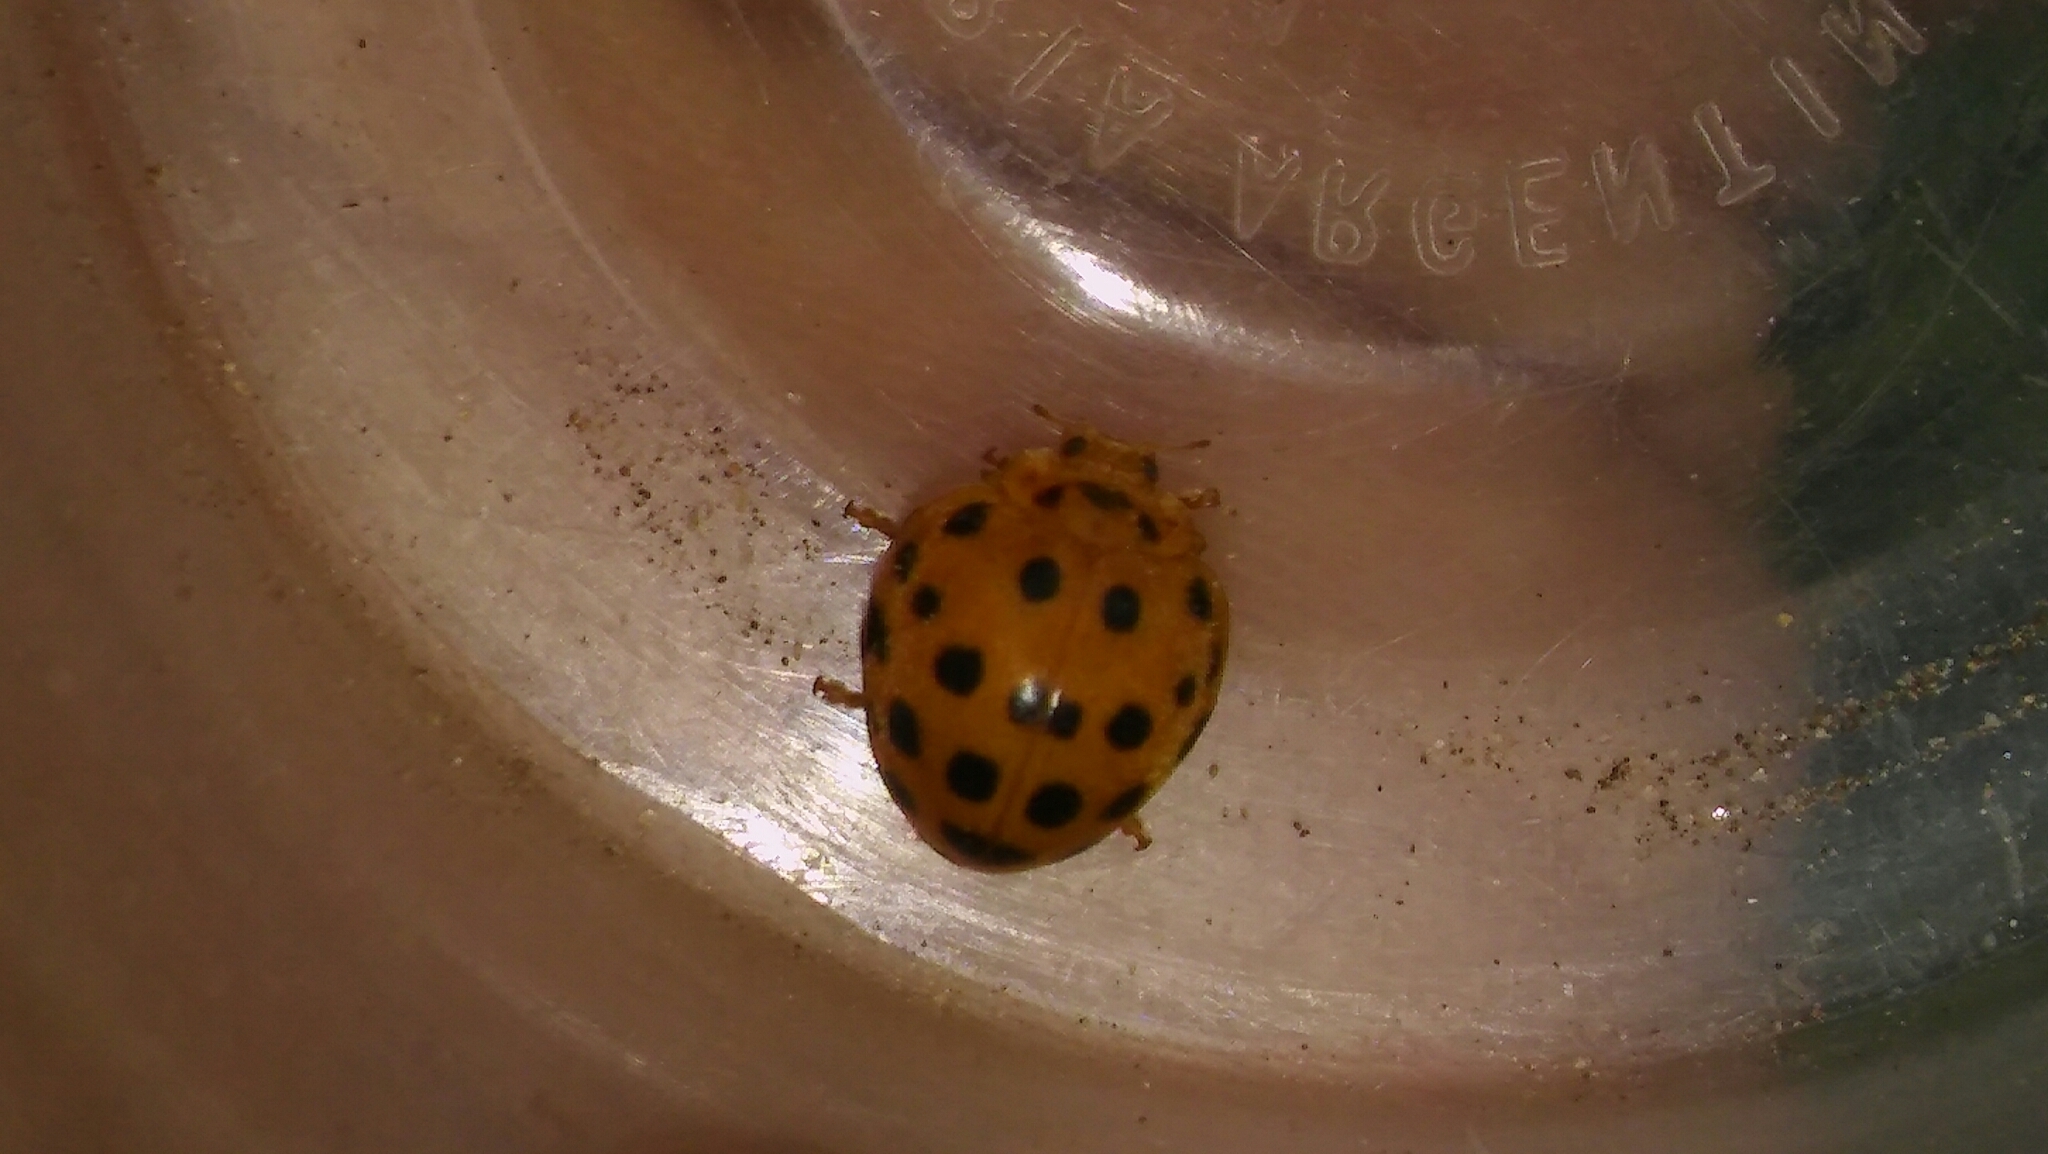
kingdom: Animalia
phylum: Arthropoda
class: Insecta
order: Coleoptera
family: Coccinellidae
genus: Henosepilachna
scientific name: Henosepilachna vigintioctopunctata
